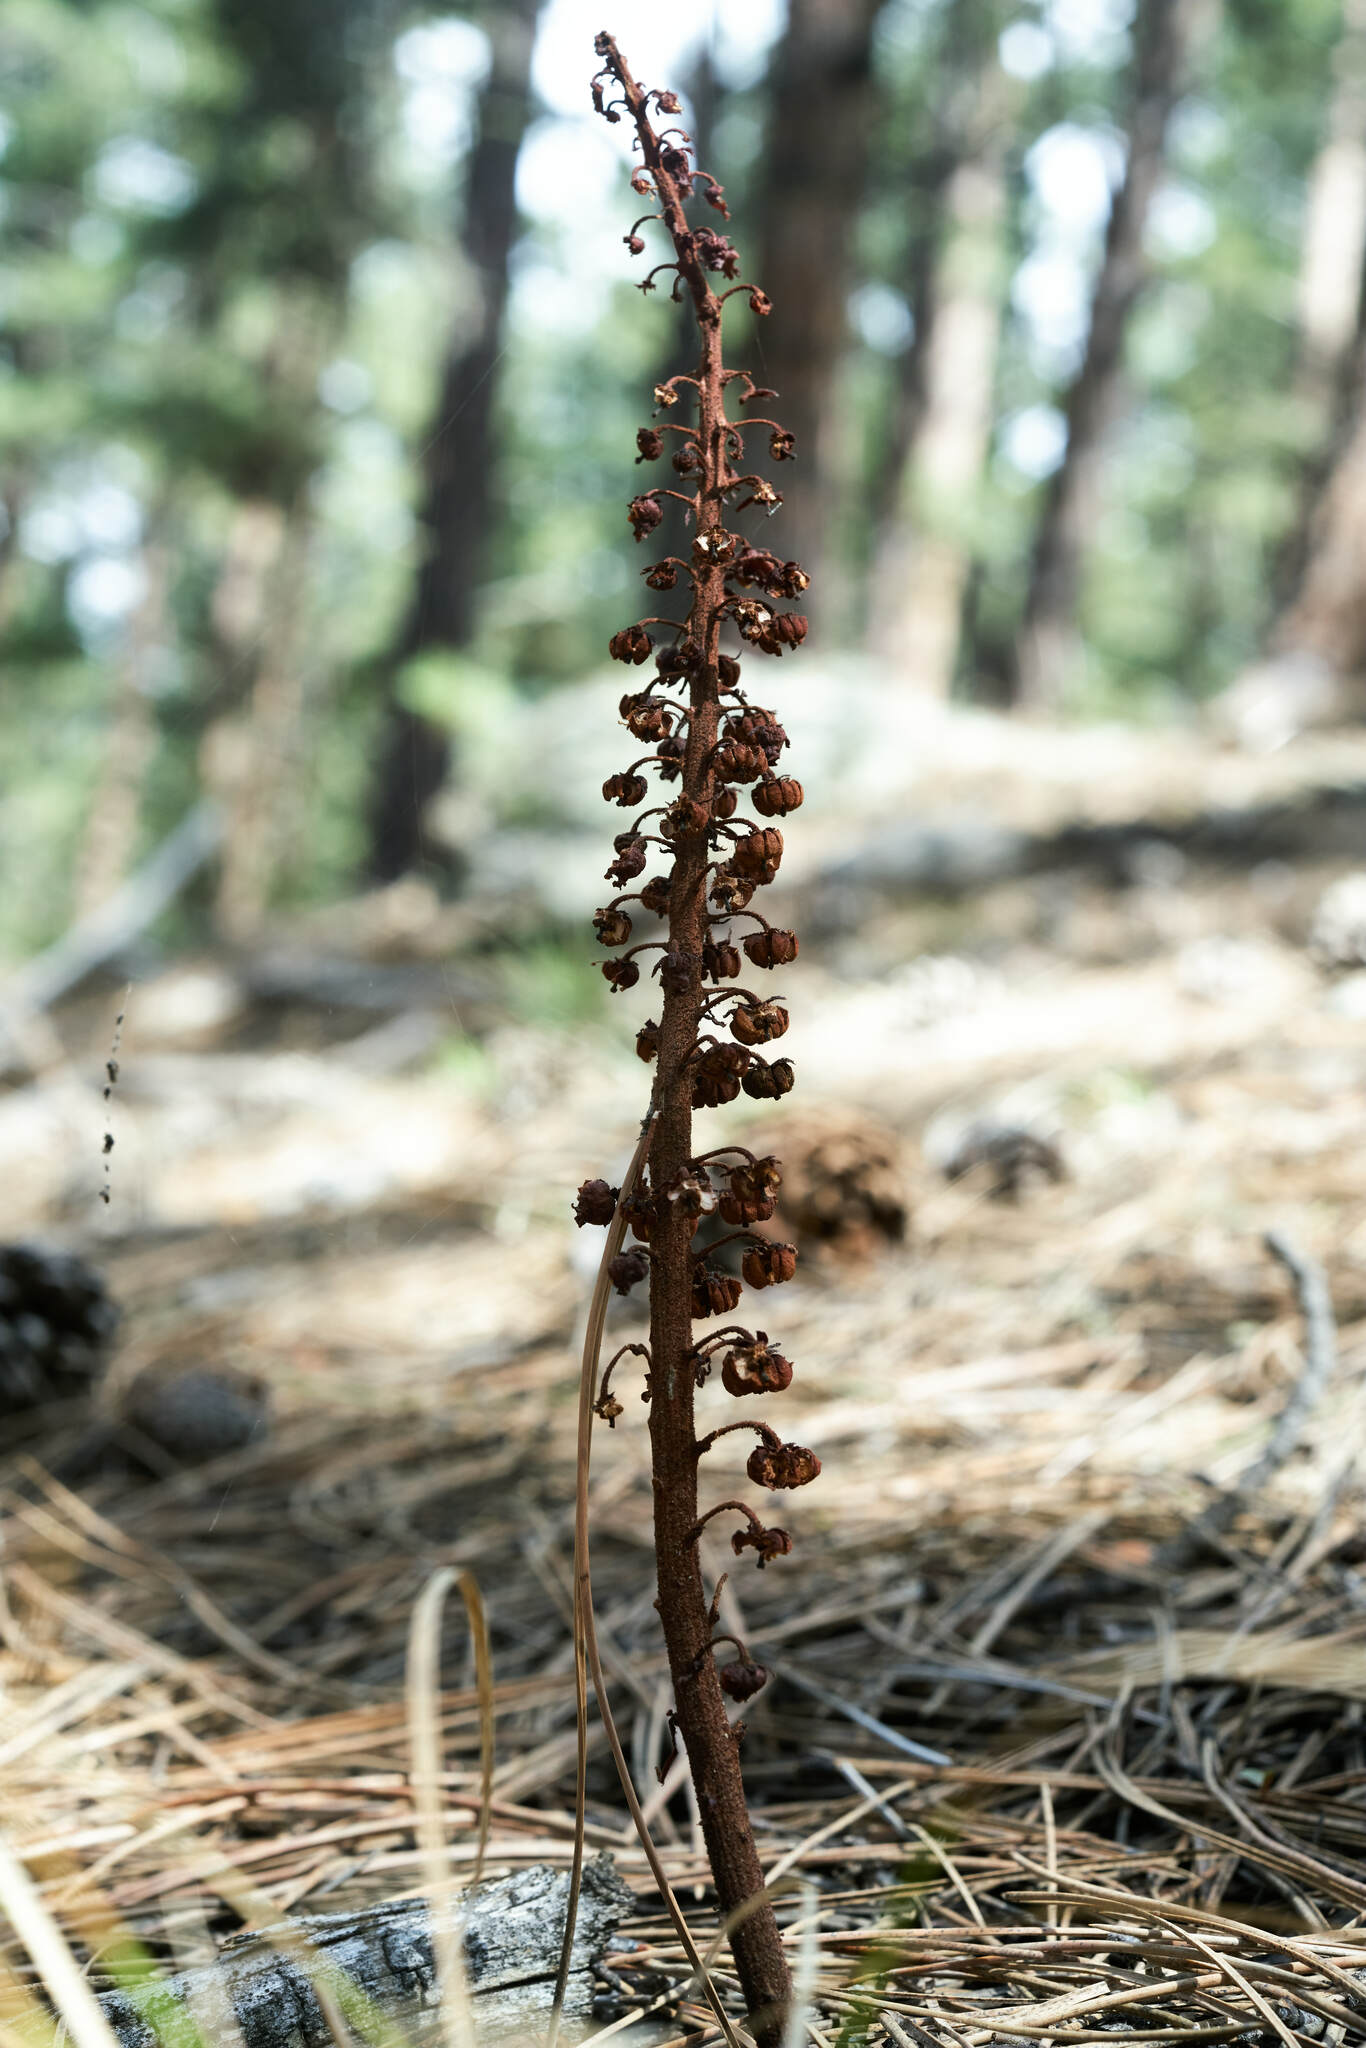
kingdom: Plantae
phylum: Tracheophyta
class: Magnoliopsida
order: Ericales
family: Ericaceae
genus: Pterospora
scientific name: Pterospora andromedea
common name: Giant bird's-nest
